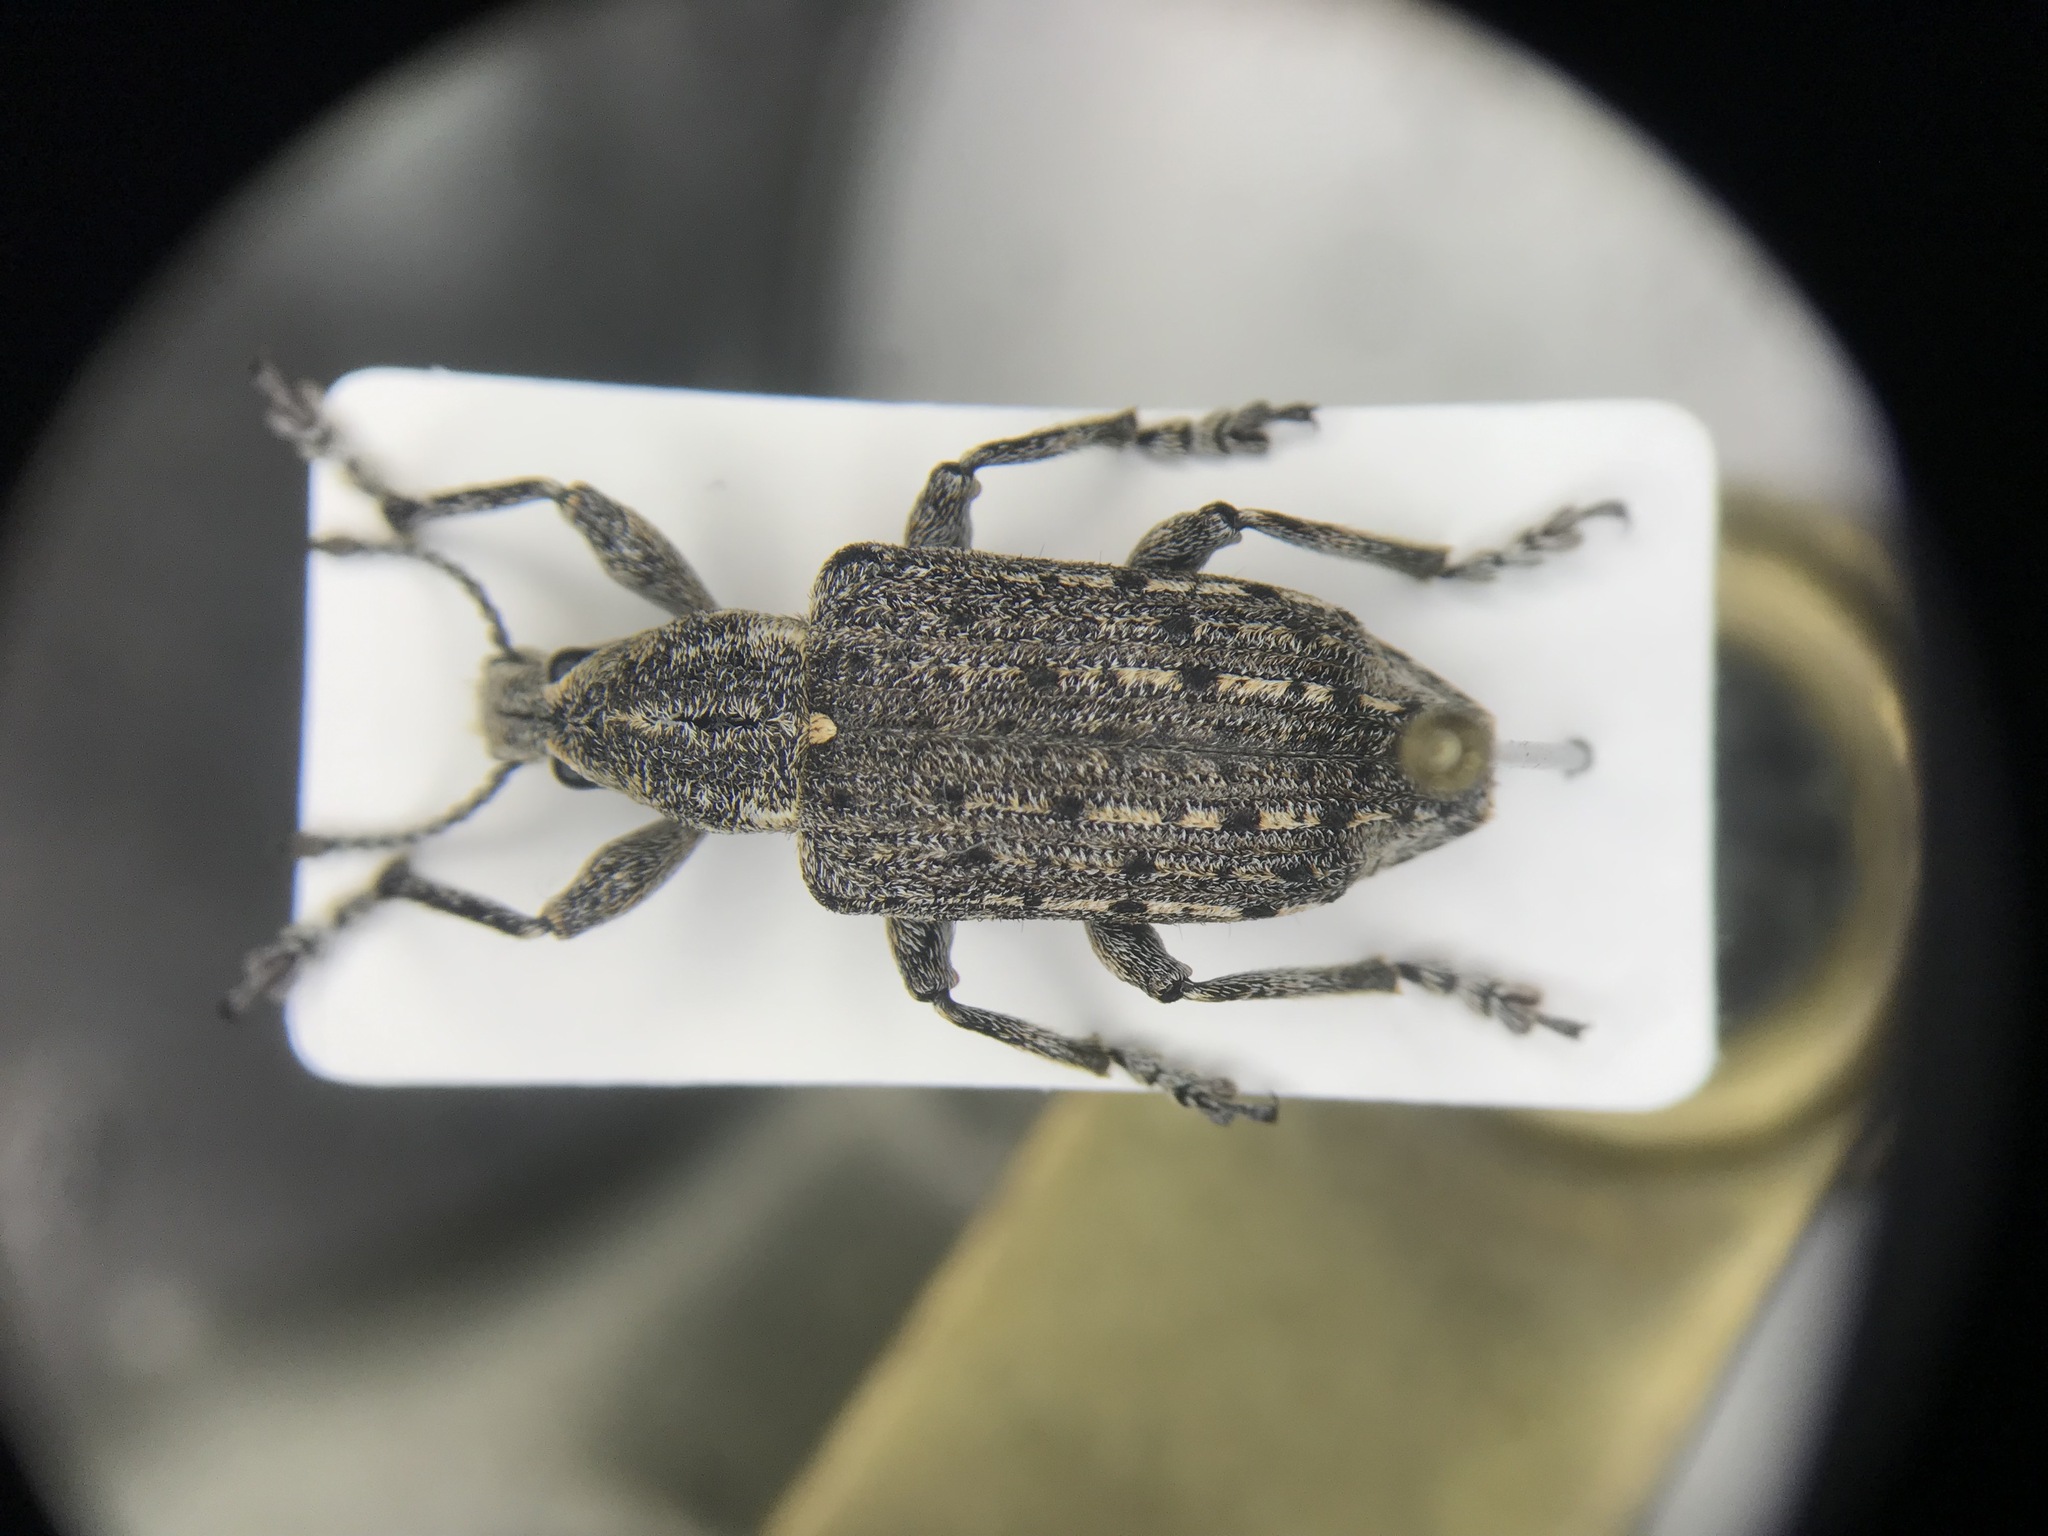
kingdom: Animalia
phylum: Arthropoda
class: Insecta
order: Coleoptera
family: Ithyceridae
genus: Ithycerus
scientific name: Ithycerus noveboracensis
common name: New york weevil
